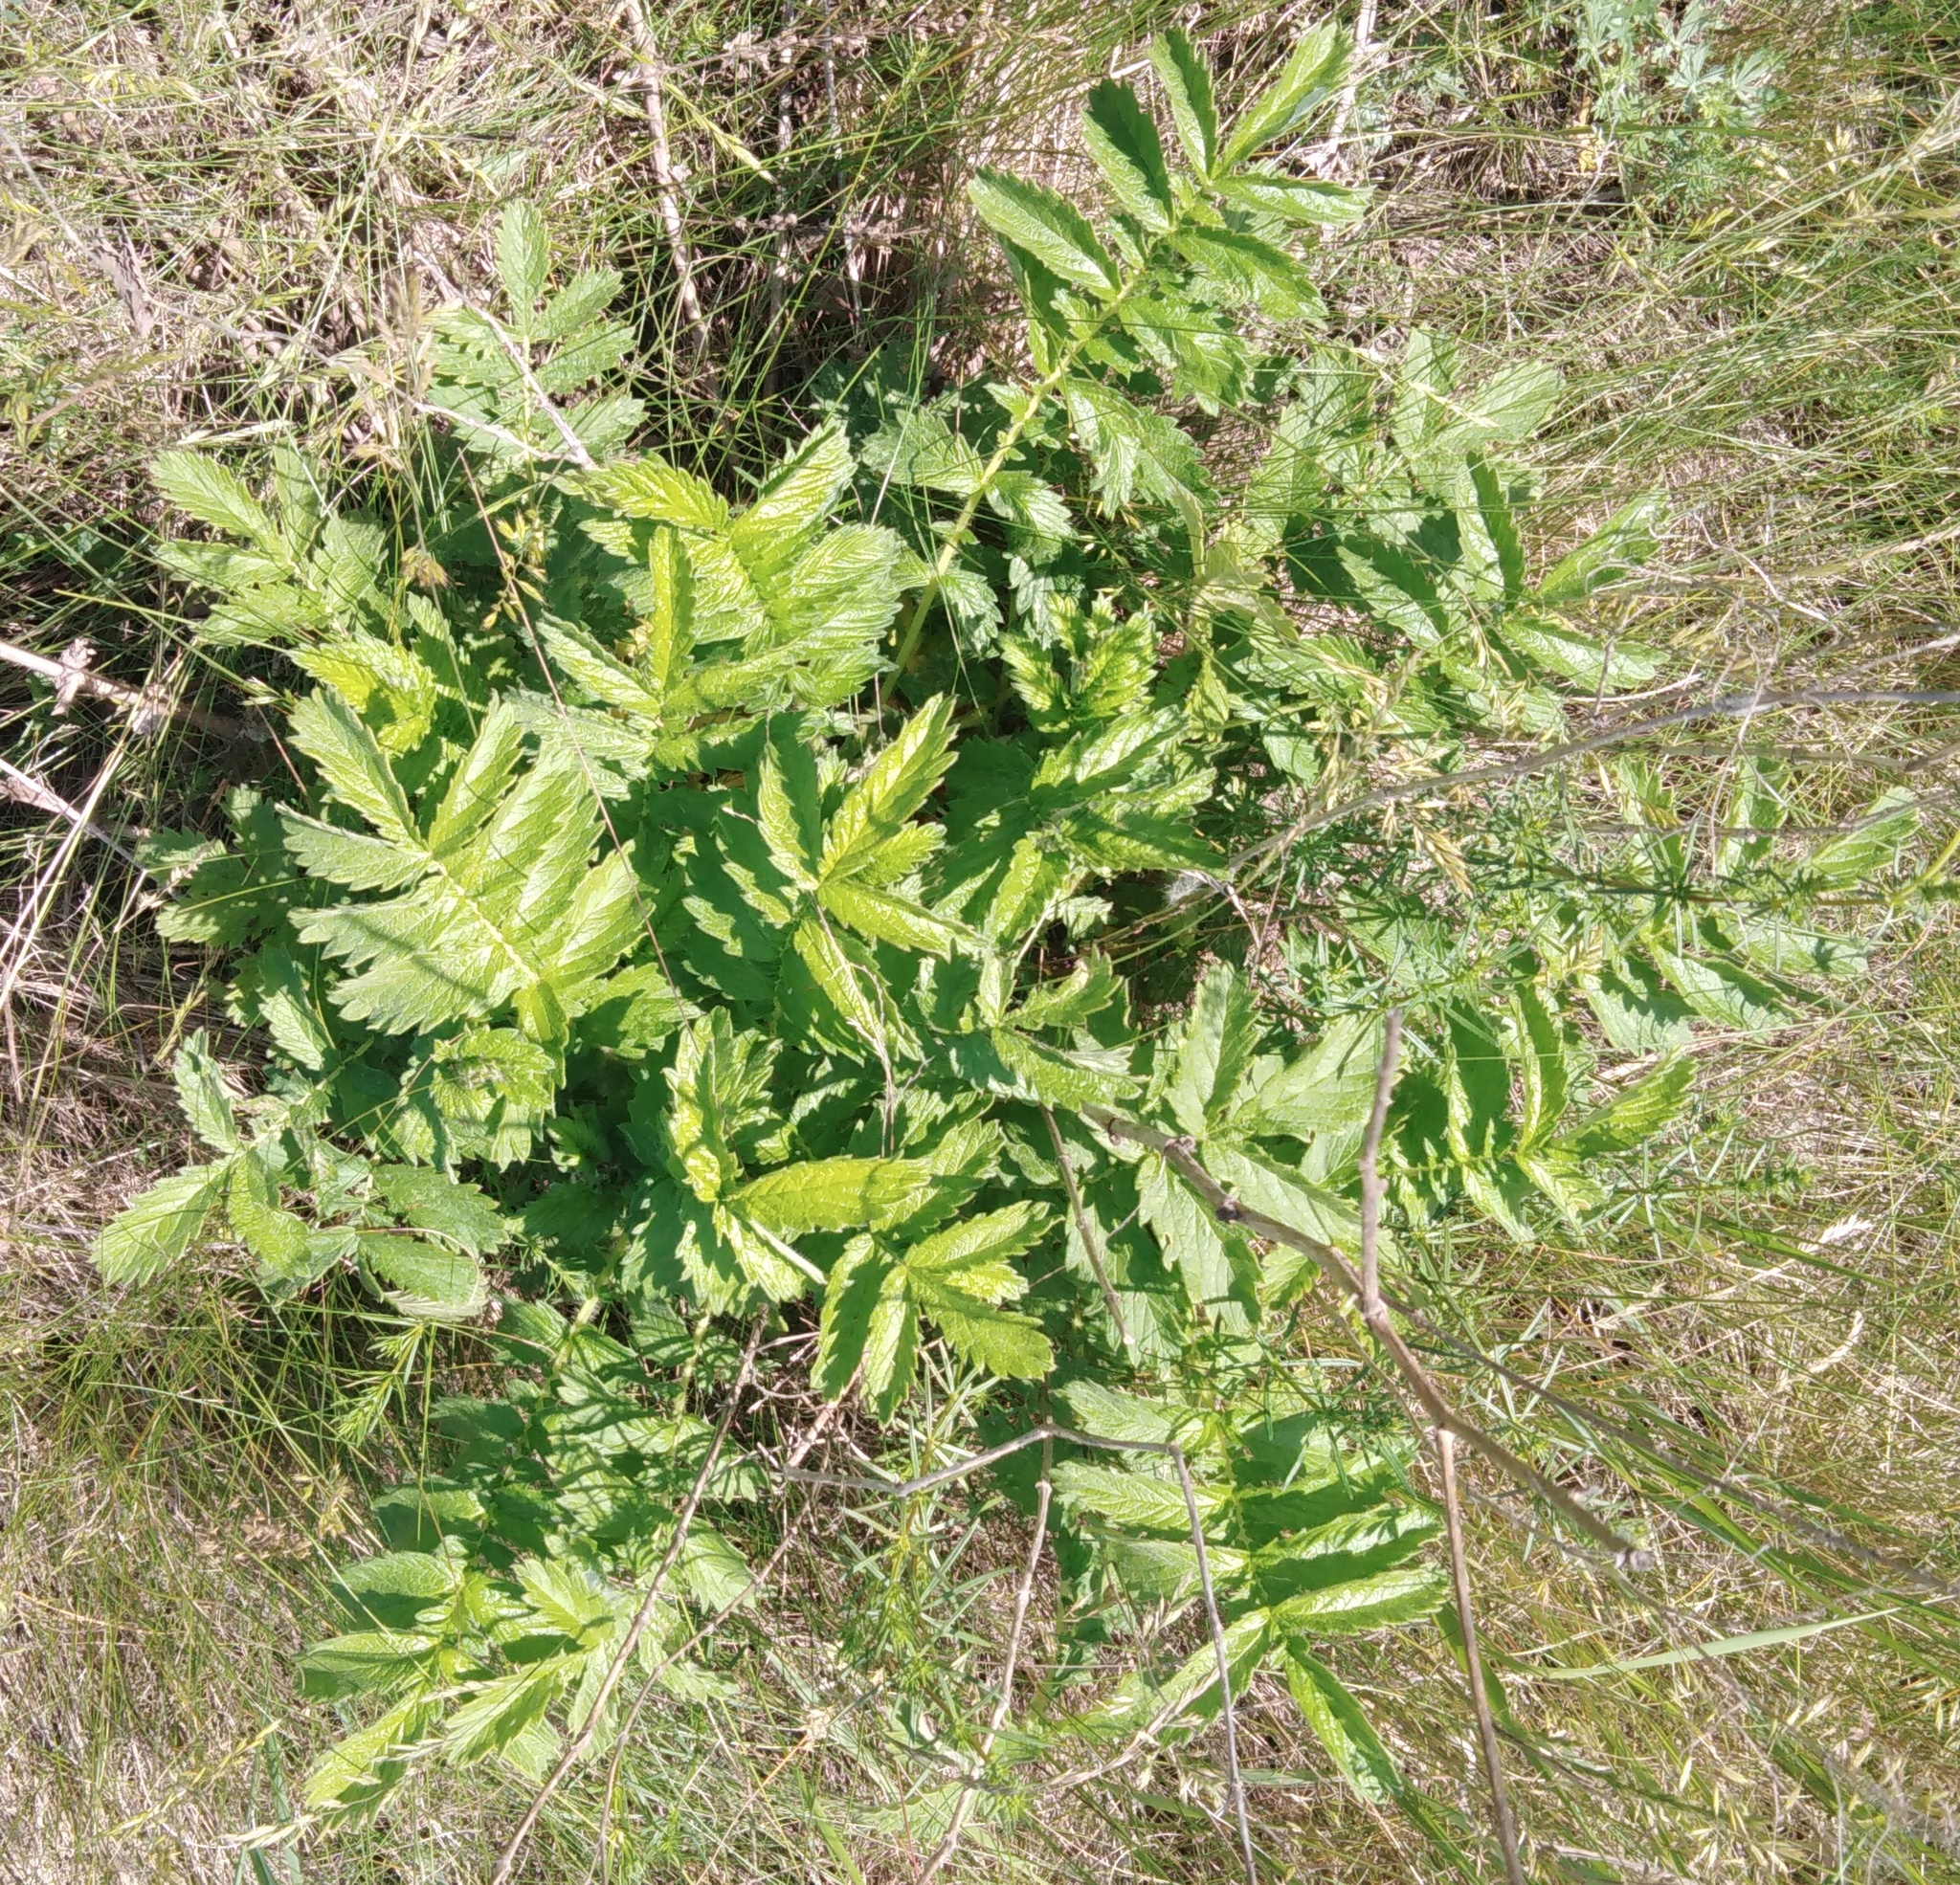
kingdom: Plantae
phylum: Tracheophyta
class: Magnoliopsida
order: Rosales
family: Rosaceae
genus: Agrimonia
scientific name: Agrimonia eupatoria
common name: Agrimony
